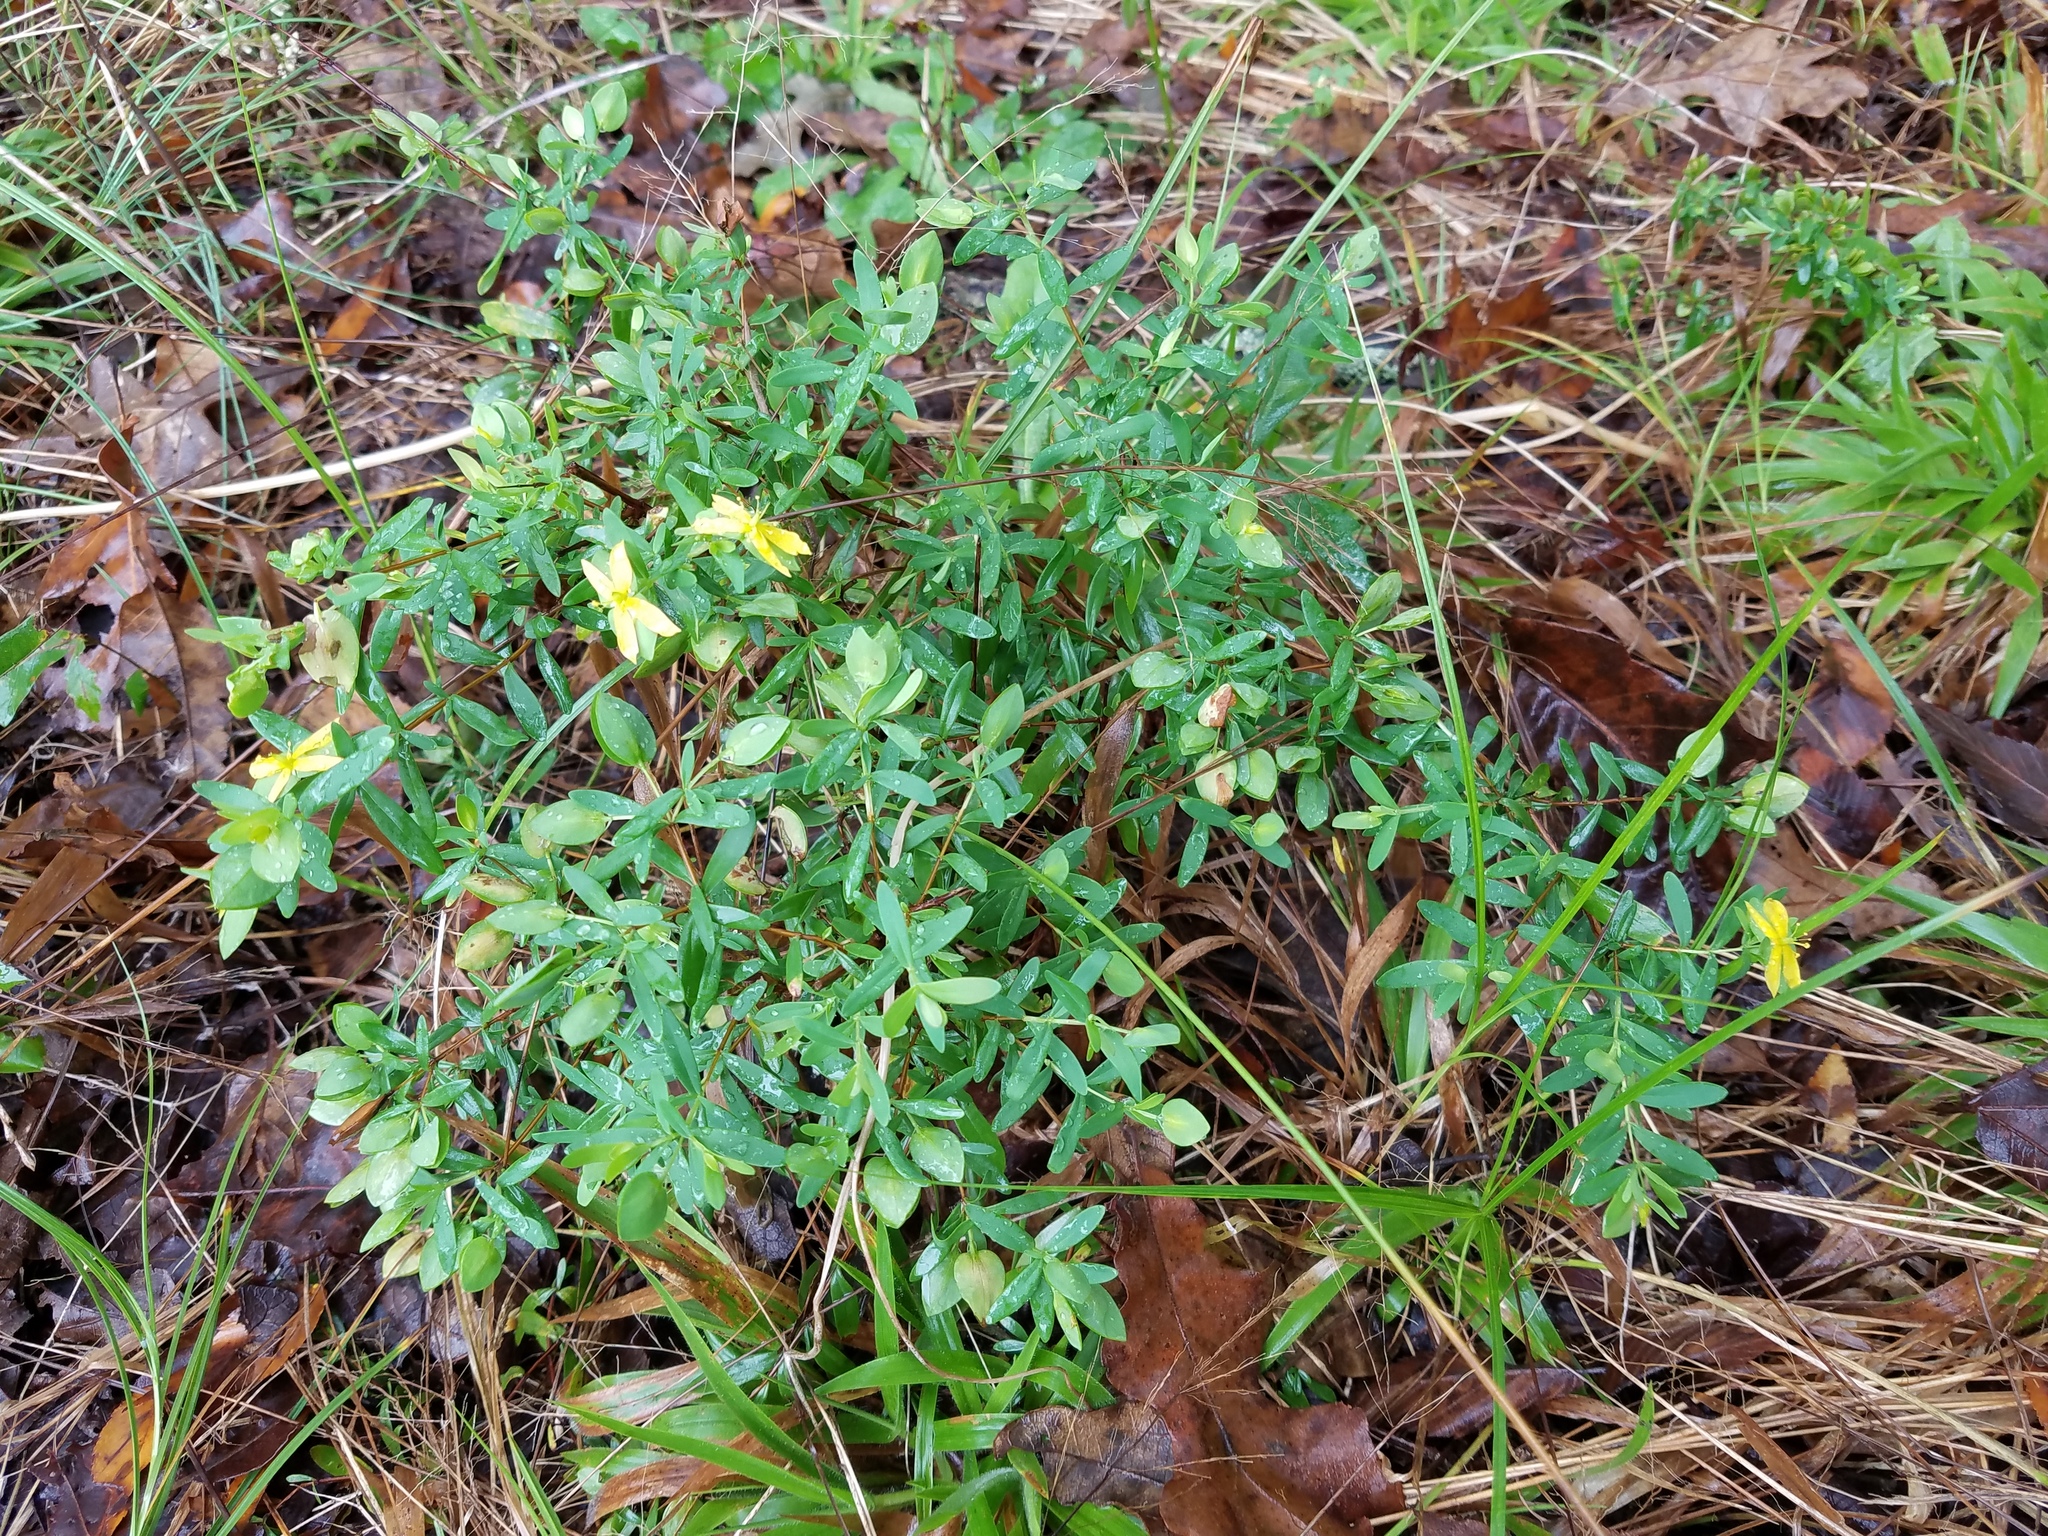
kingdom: Plantae
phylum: Tracheophyta
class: Magnoliopsida
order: Malpighiales
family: Hypericaceae
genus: Hypericum
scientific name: Hypericum hypericoides
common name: St. andrew's cross
